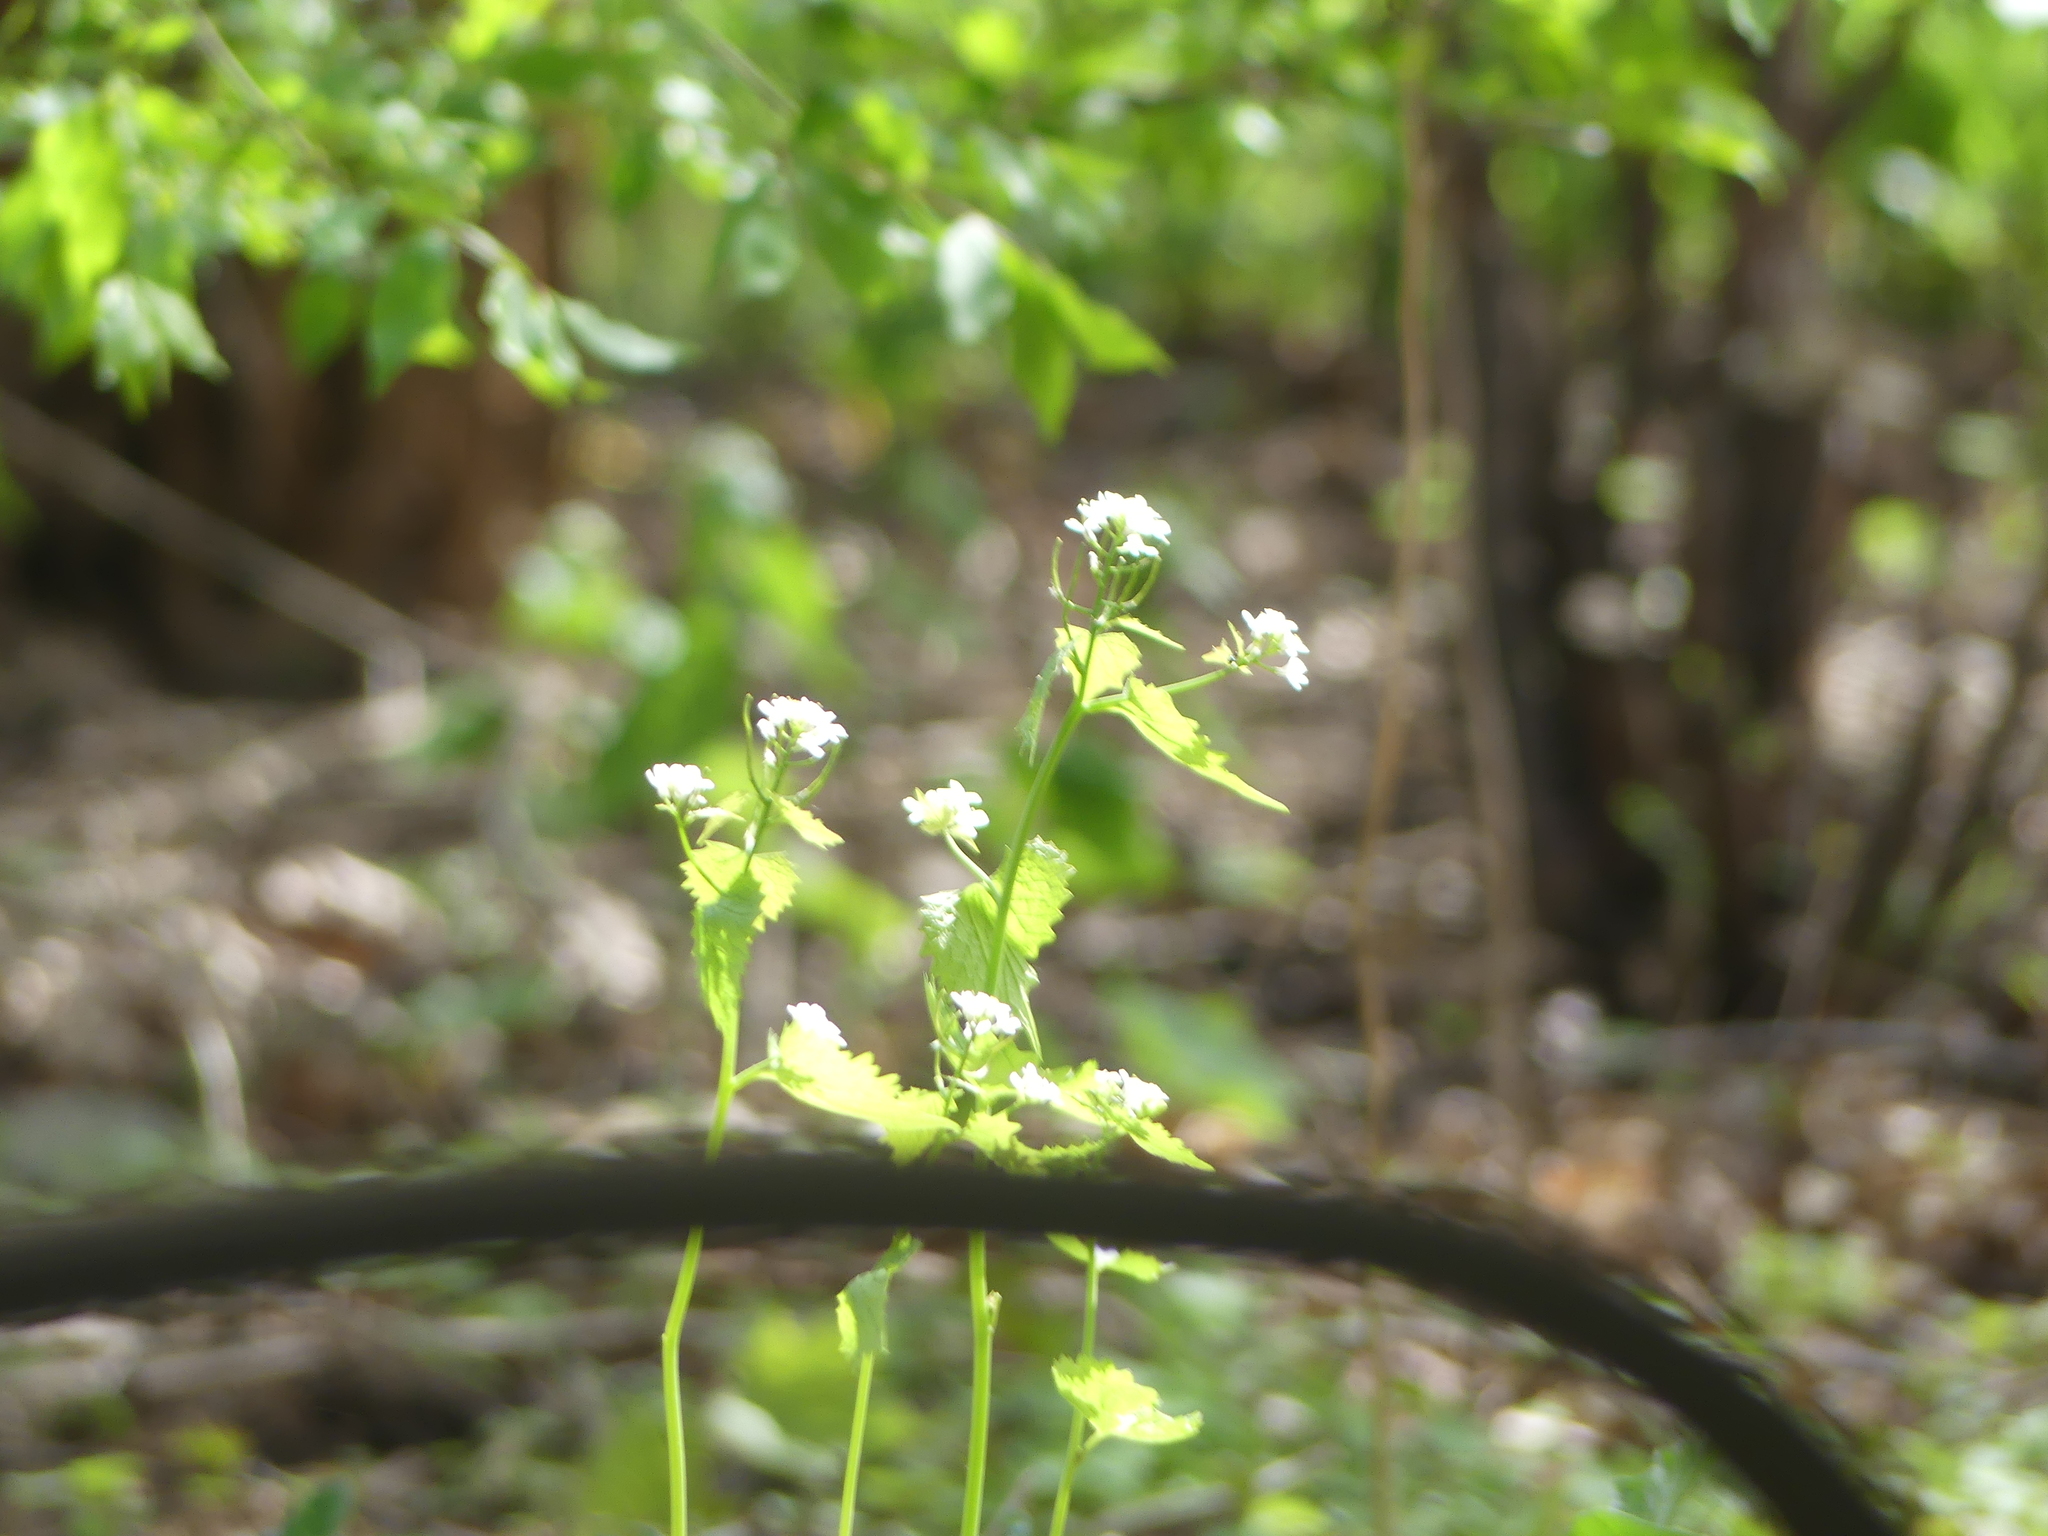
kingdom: Plantae
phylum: Tracheophyta
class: Magnoliopsida
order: Brassicales
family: Brassicaceae
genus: Alliaria
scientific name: Alliaria petiolata
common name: Garlic mustard
